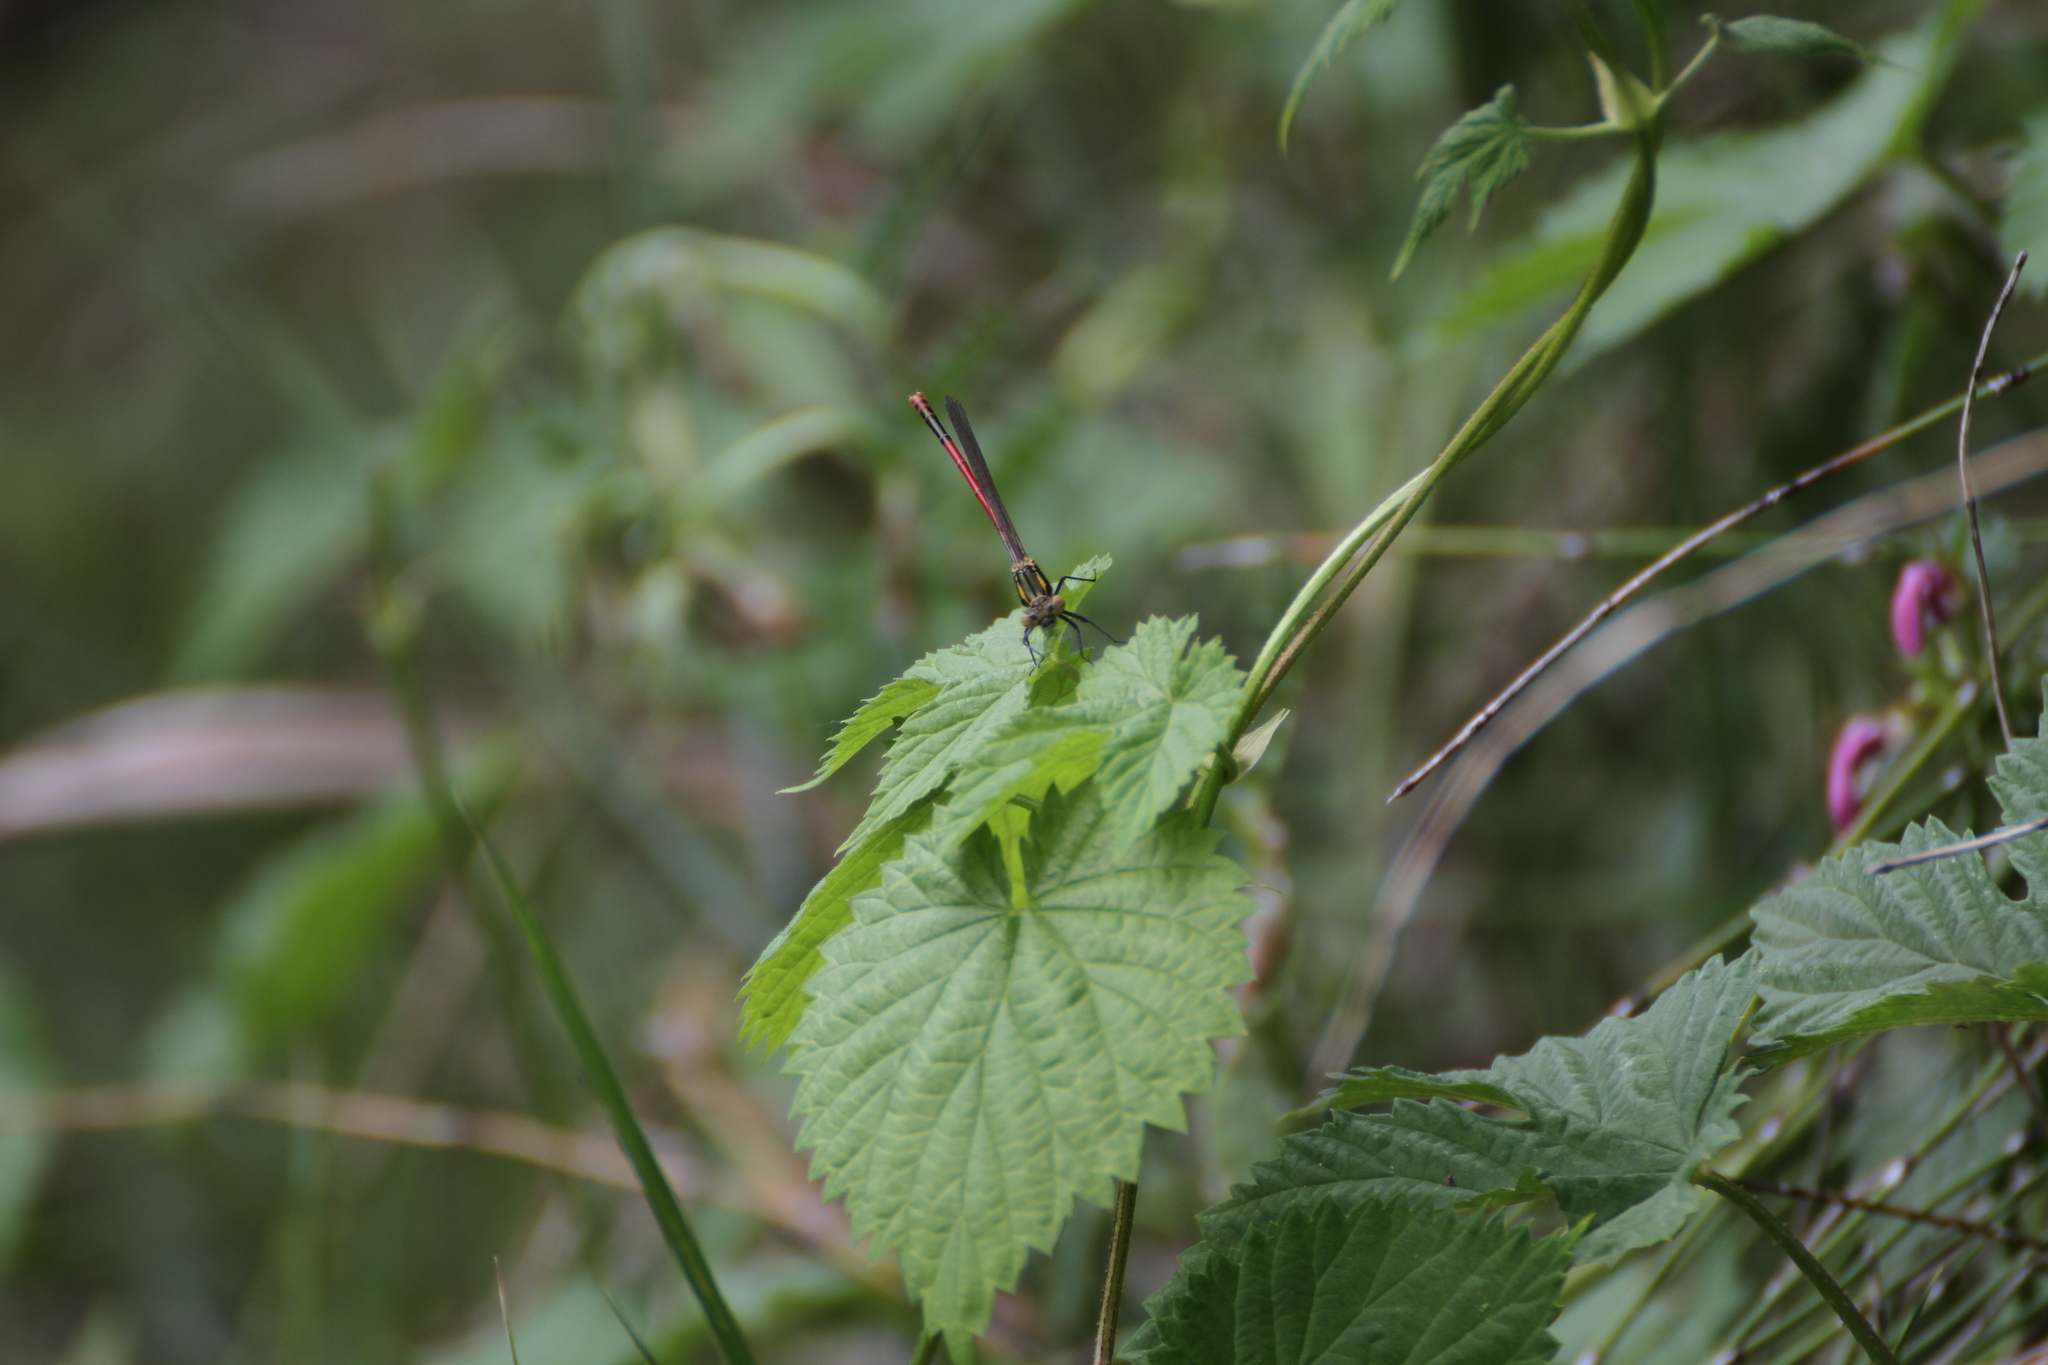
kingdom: Animalia
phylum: Arthropoda
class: Insecta
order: Odonata
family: Coenagrionidae
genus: Pyrrhosoma
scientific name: Pyrrhosoma nymphula
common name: Large red damsel
